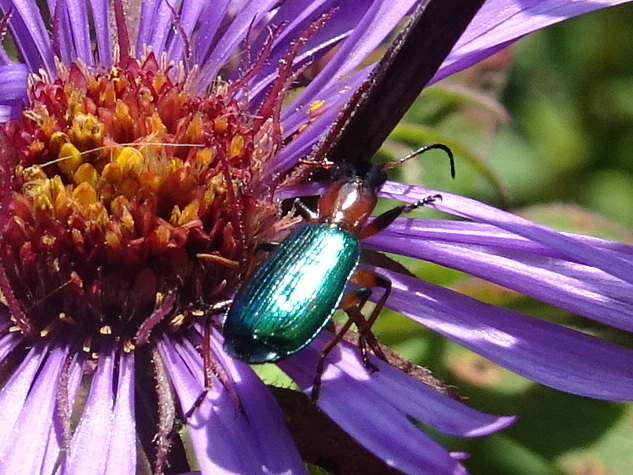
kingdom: Animalia
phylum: Arthropoda
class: Insecta
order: Coleoptera
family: Carabidae
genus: Calleida
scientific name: Calleida punctata
